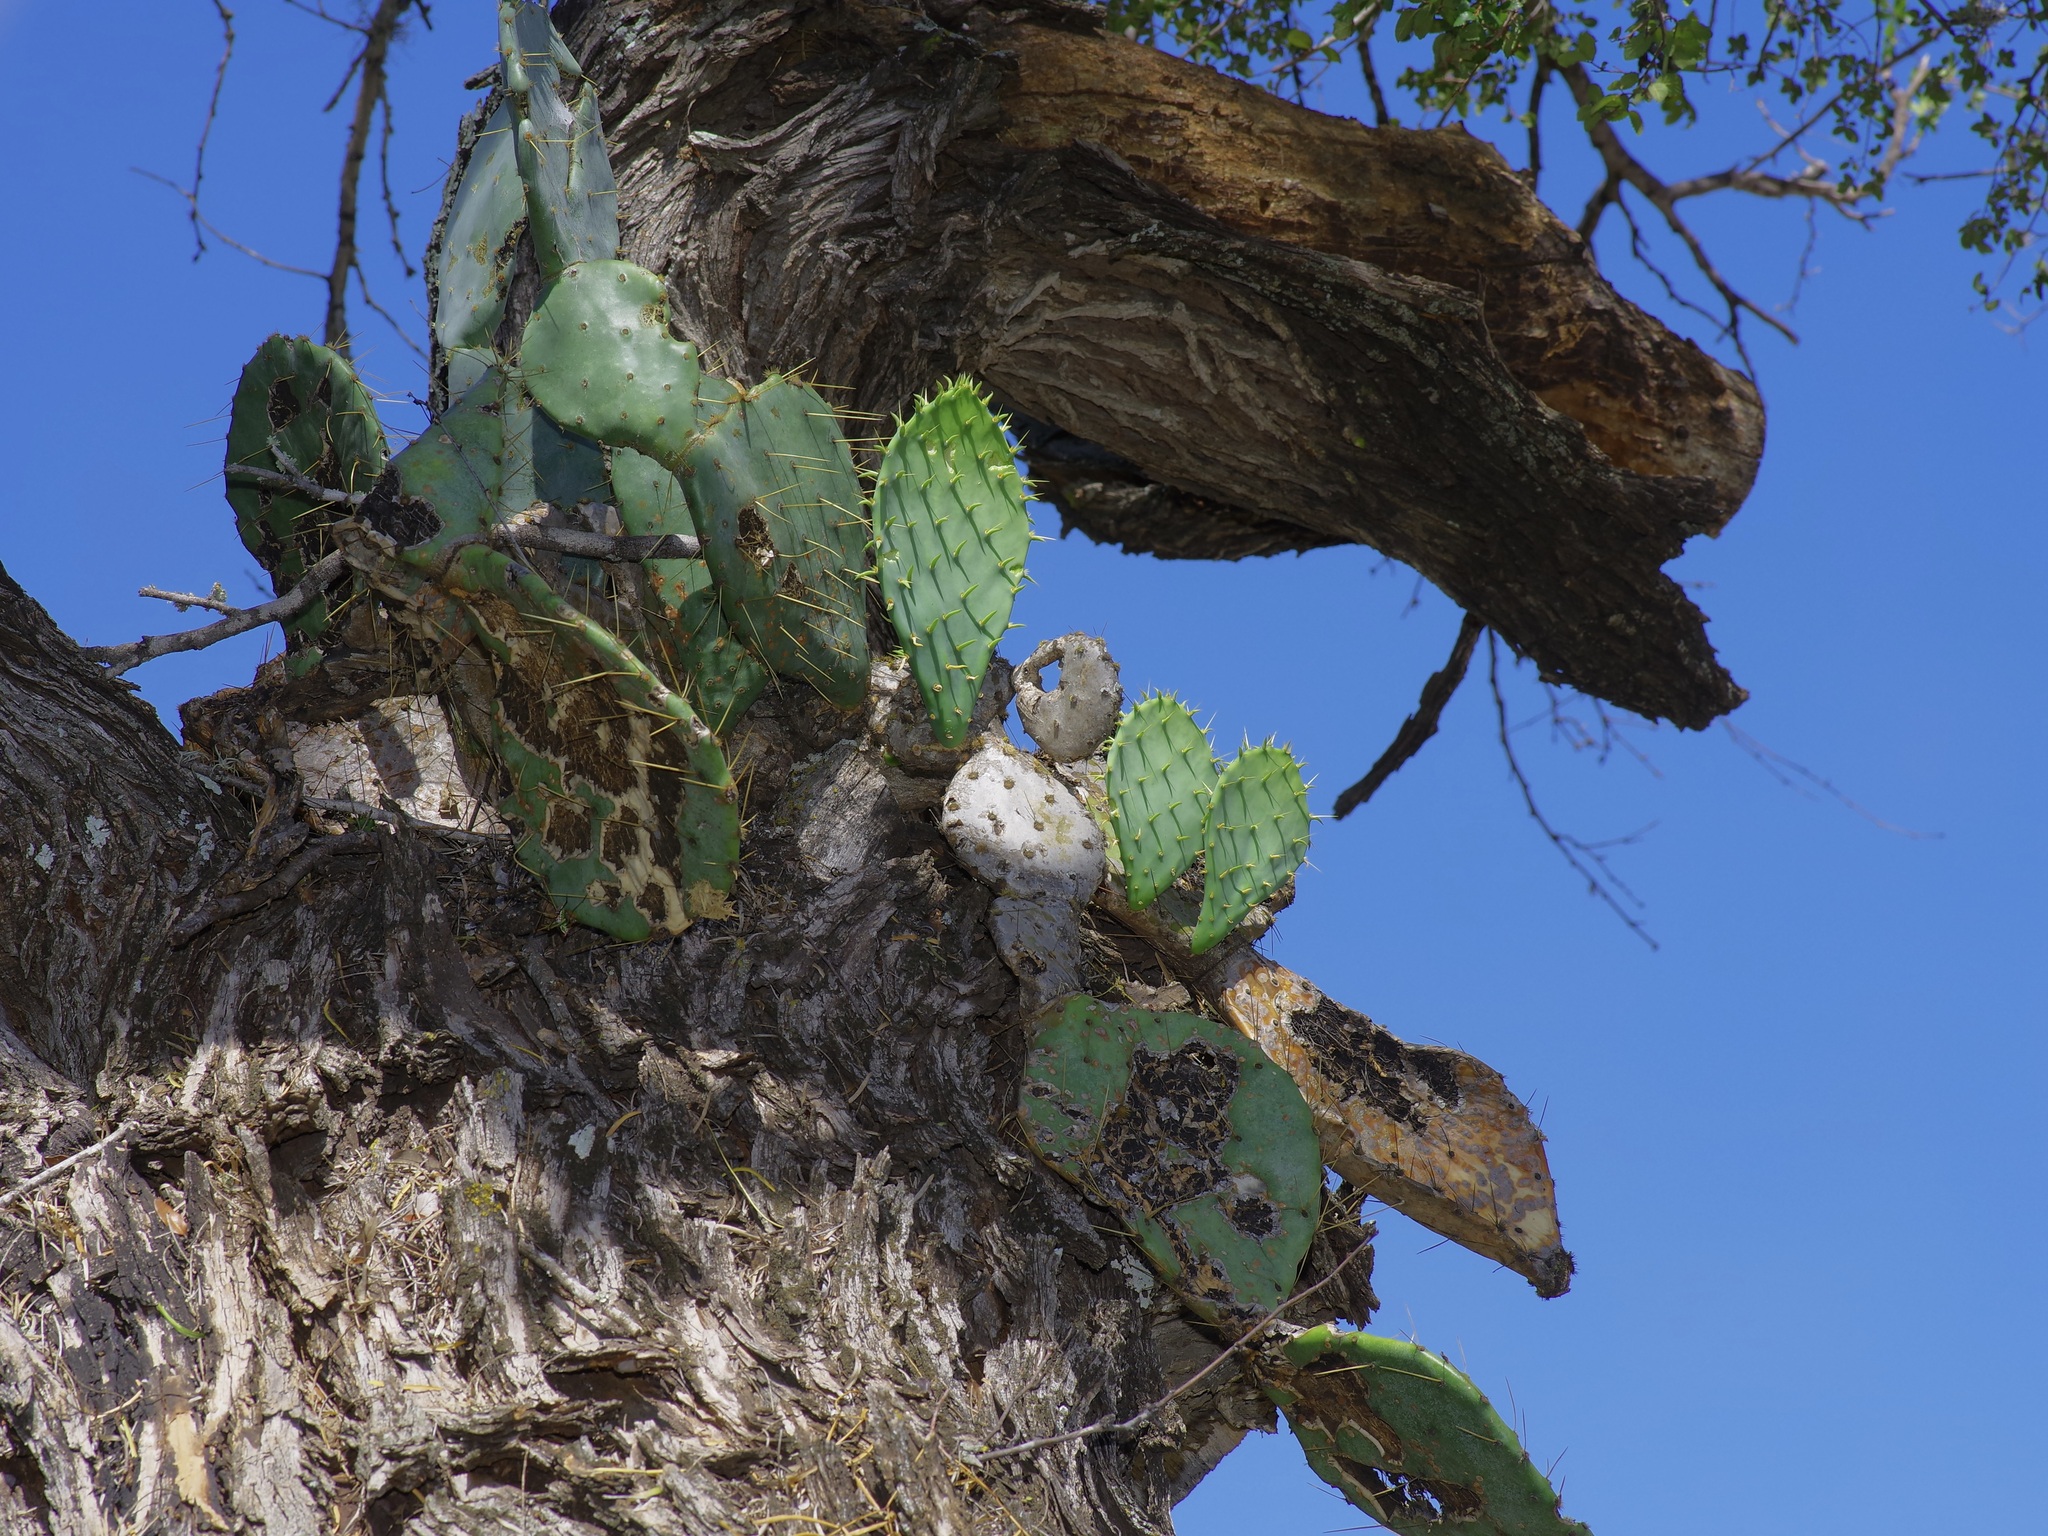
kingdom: Plantae
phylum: Tracheophyta
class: Magnoliopsida
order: Caryophyllales
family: Cactaceae
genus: Opuntia
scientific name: Opuntia engelmannii
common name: Cactus-apple
